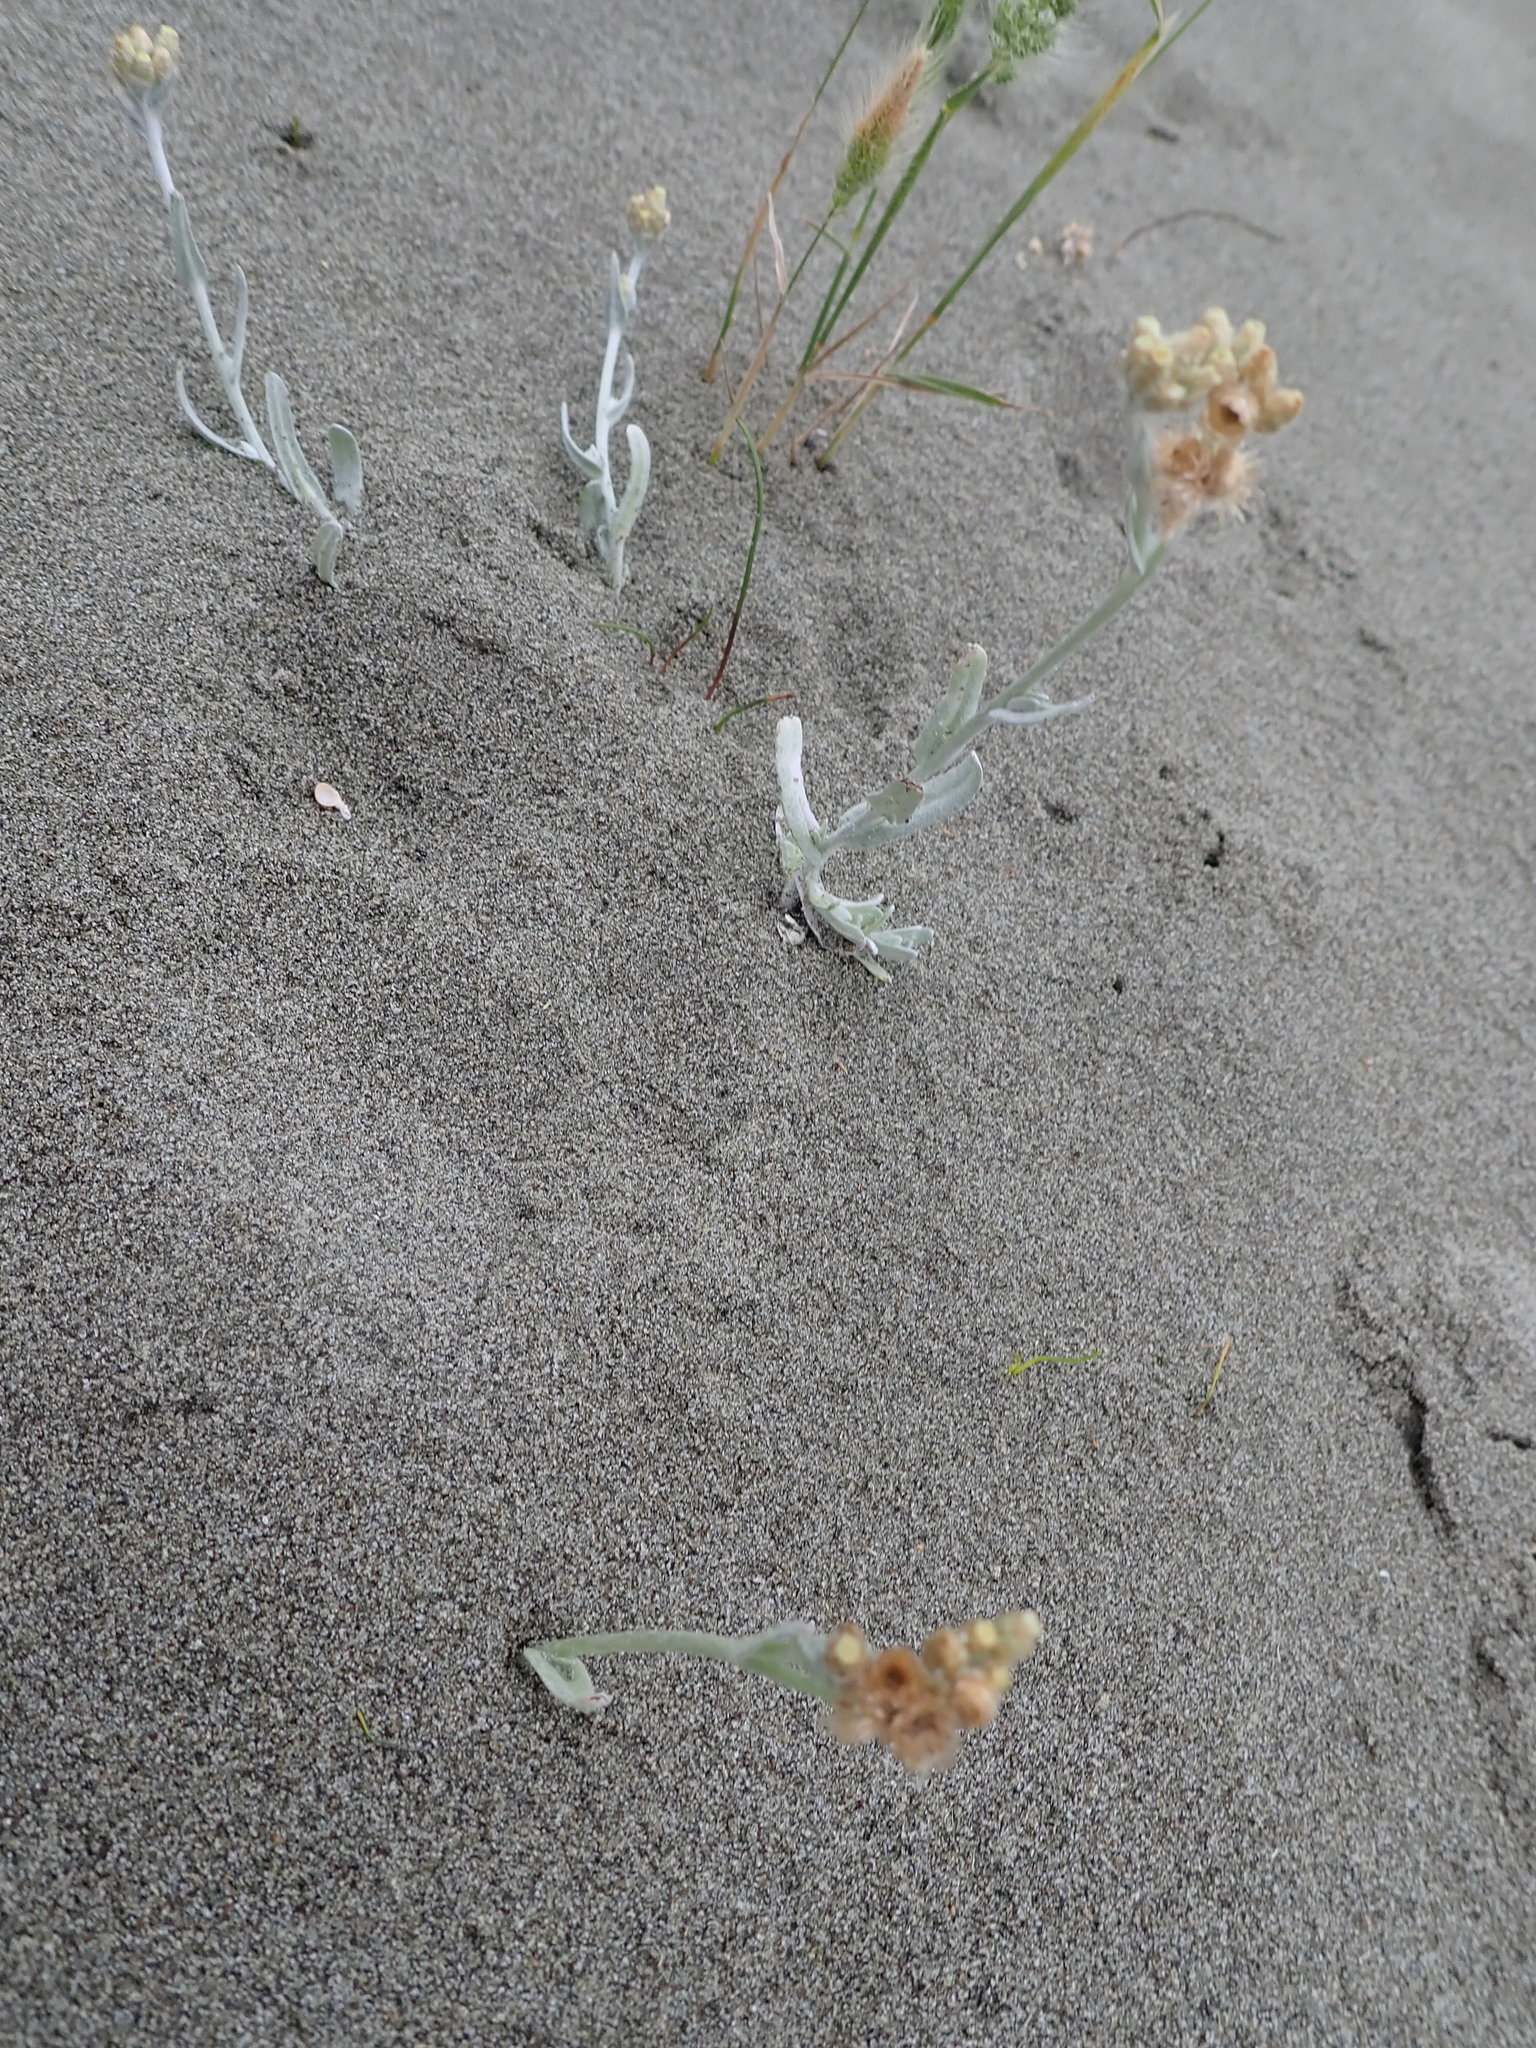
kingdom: Plantae
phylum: Tracheophyta
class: Magnoliopsida
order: Asterales
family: Asteraceae
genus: Helichrysum
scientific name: Helichrysum luteoalbum
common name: Daisy
